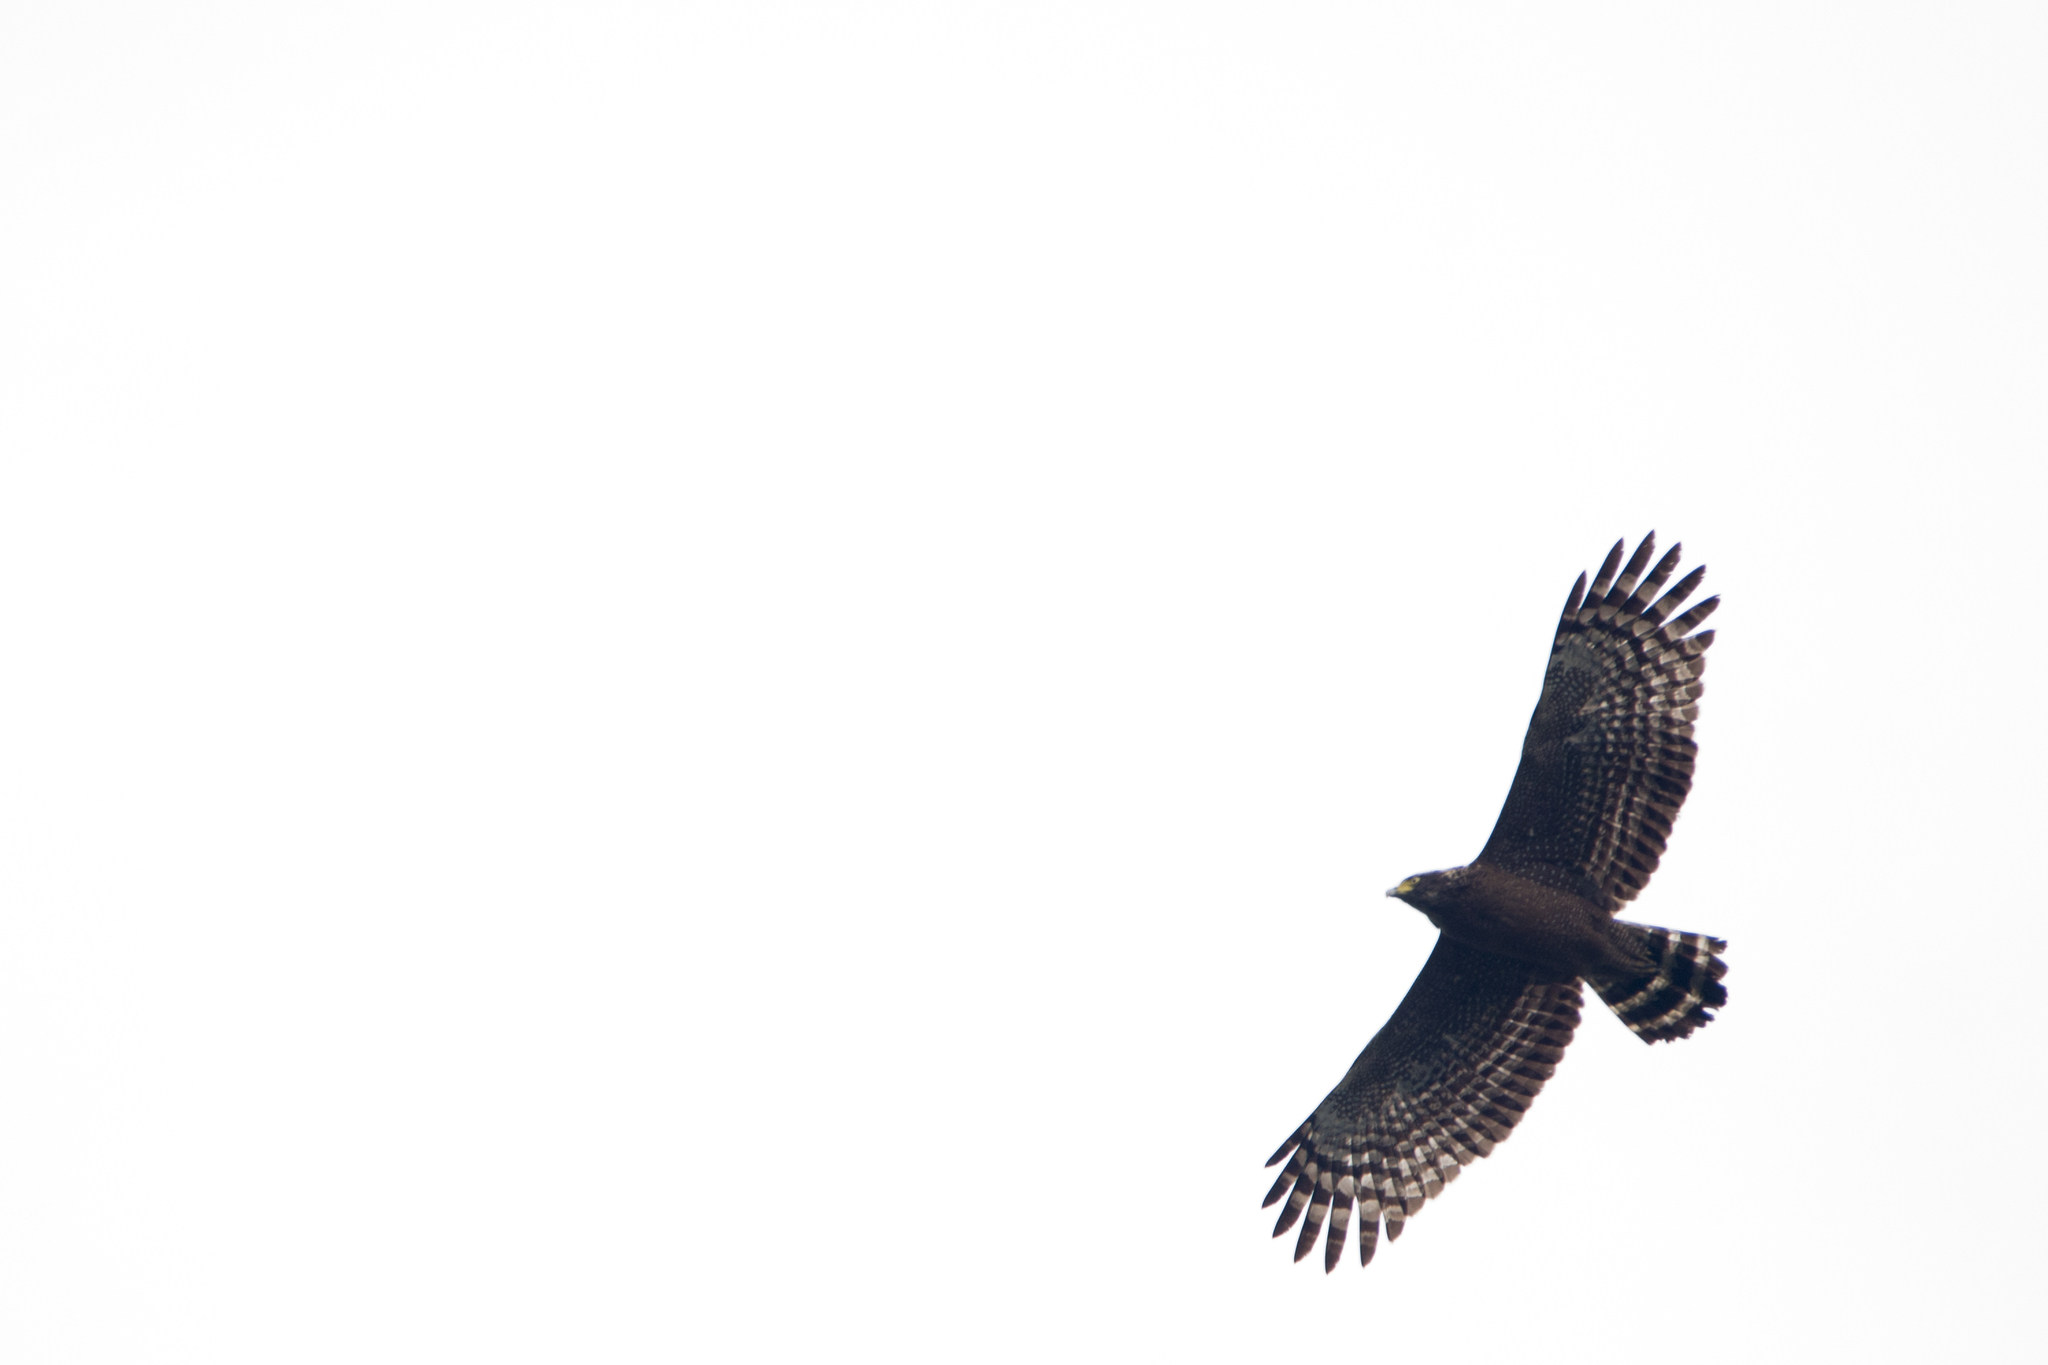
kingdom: Animalia
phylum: Chordata
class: Aves
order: Accipitriformes
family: Accipitridae
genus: Spilornis
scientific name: Spilornis cheela
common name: Crested serpent eagle
